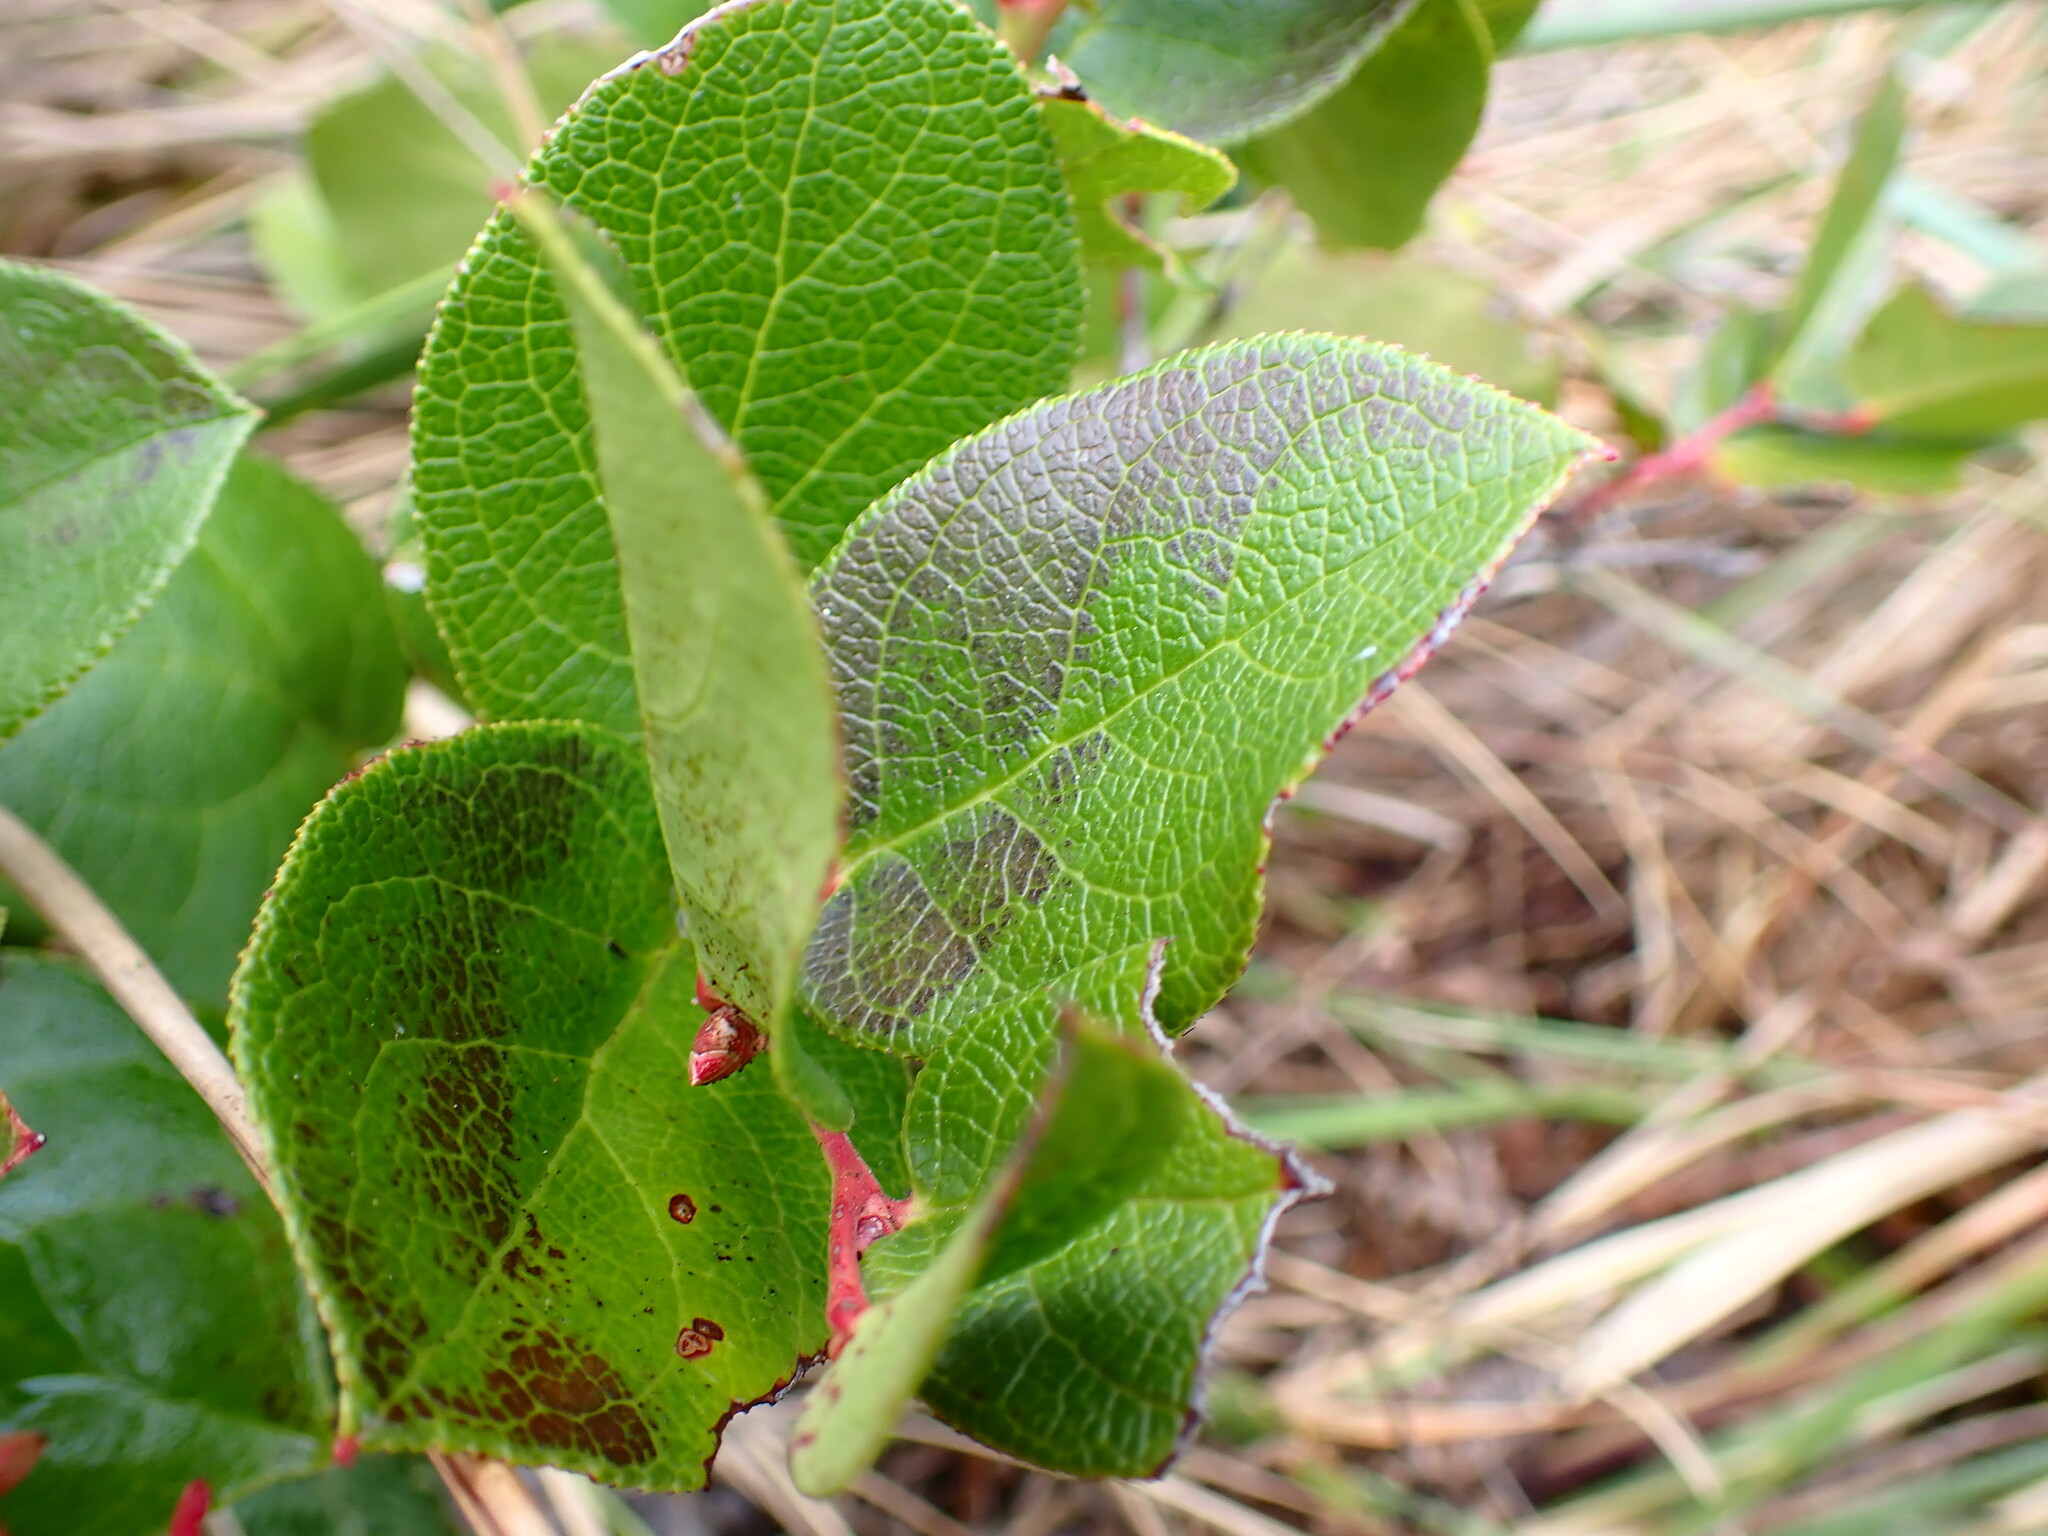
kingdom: Plantae
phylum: Tracheophyta
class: Magnoliopsida
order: Ericales
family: Ericaceae
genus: Gaultheria
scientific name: Gaultheria shallon
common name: Shallon
